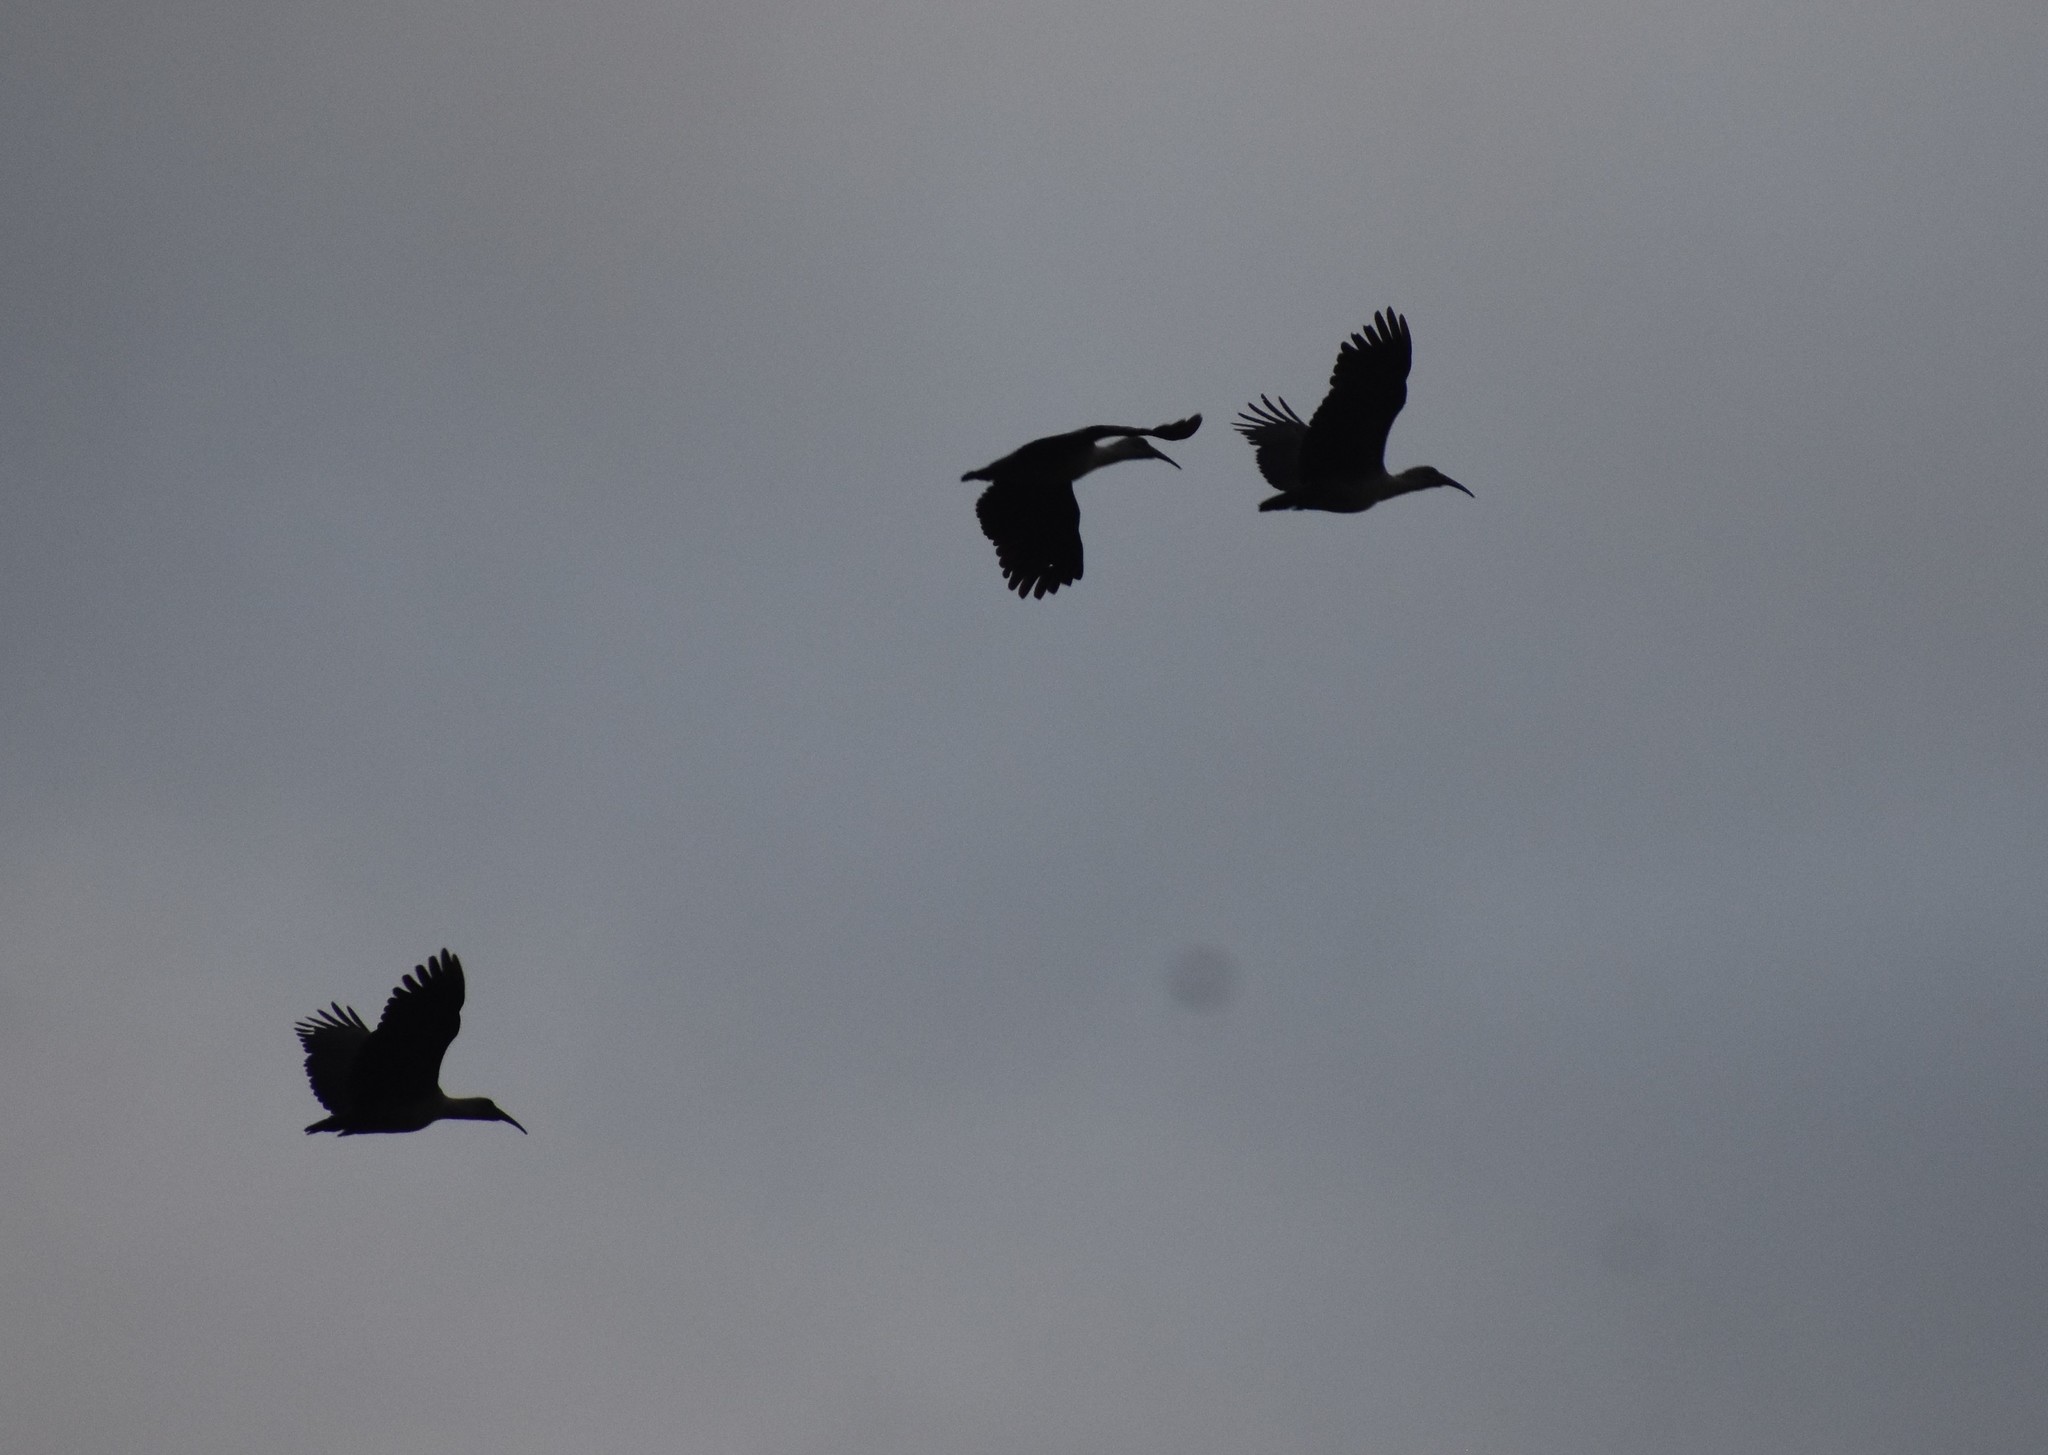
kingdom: Animalia
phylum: Chordata
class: Aves
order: Pelecaniformes
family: Threskiornithidae
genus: Bostrychia
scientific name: Bostrychia hagedash
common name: Hadada ibis
